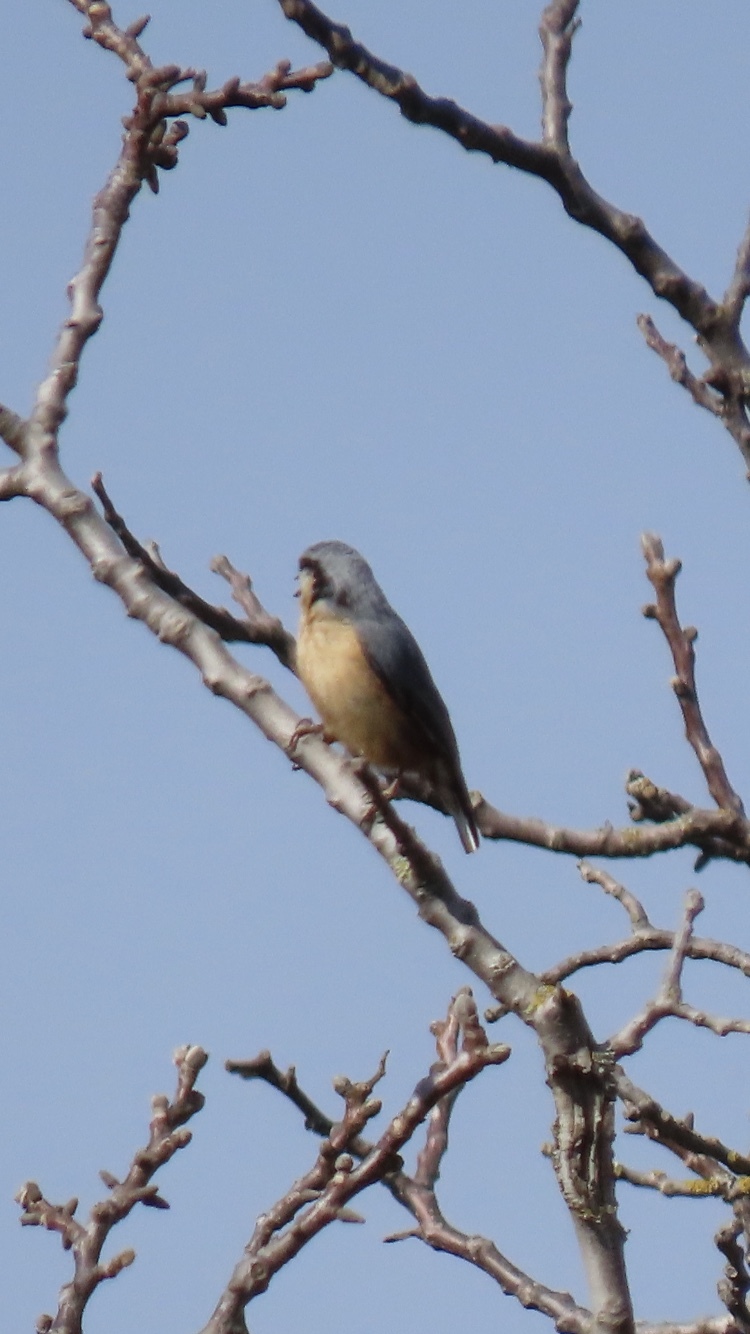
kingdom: Animalia
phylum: Chordata
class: Aves
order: Passeriformes
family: Sittidae
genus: Sitta
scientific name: Sitta europaea
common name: Eurasian nuthatch
